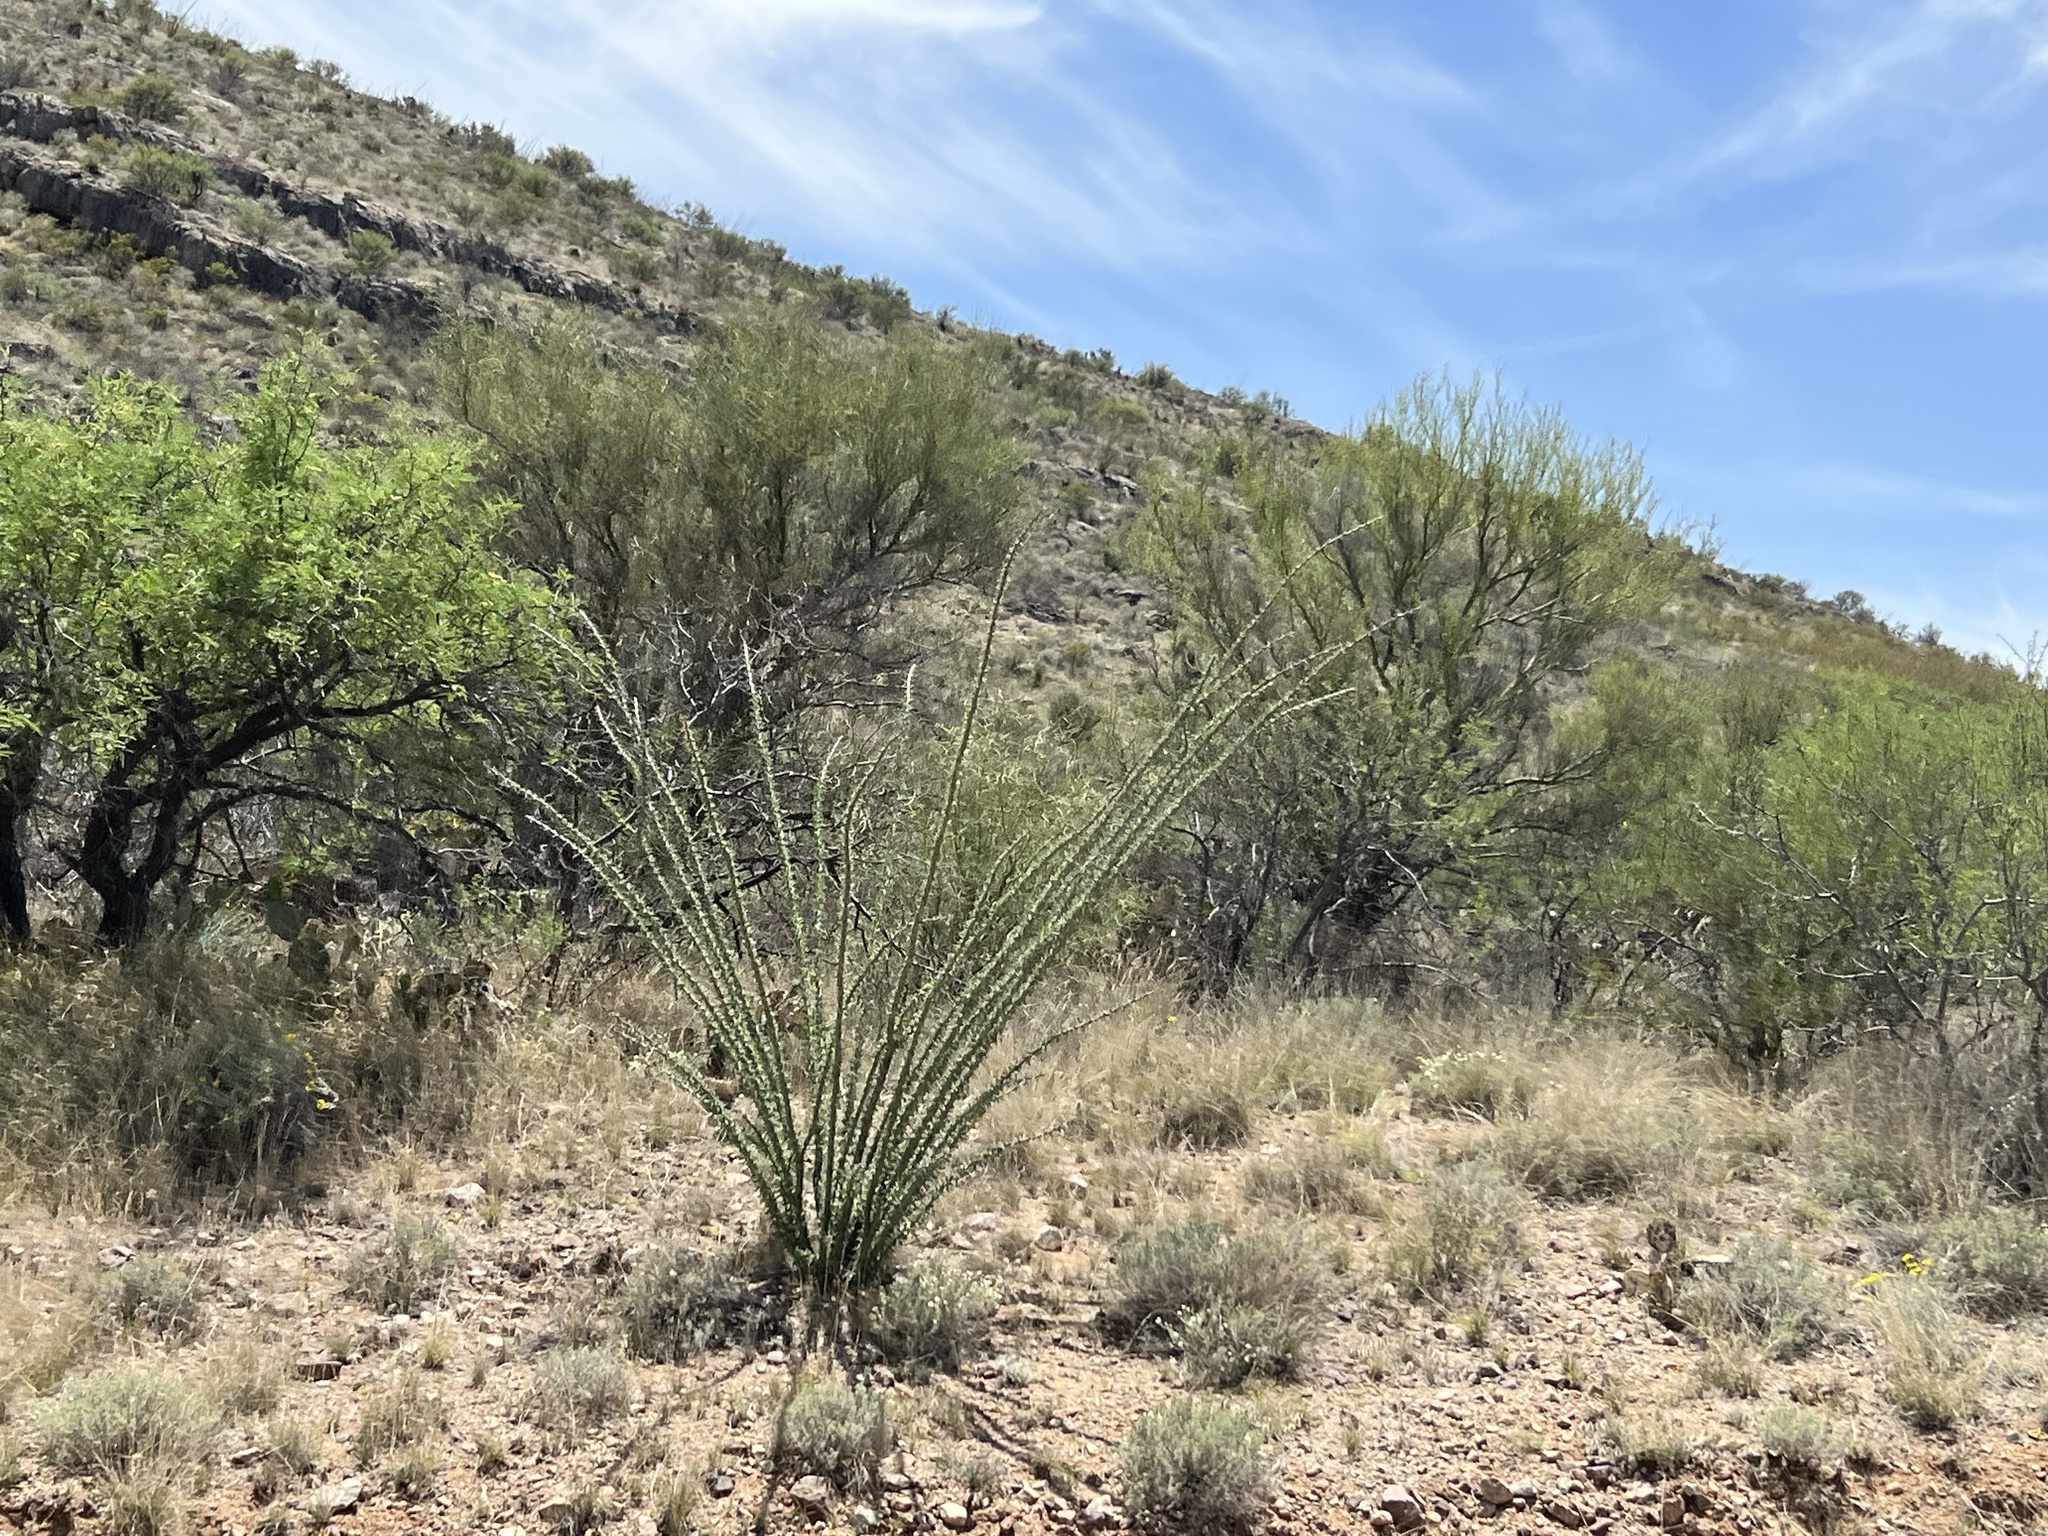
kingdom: Plantae
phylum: Tracheophyta
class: Magnoliopsida
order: Ericales
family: Fouquieriaceae
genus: Fouquieria
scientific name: Fouquieria splendens
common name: Vine-cactus
